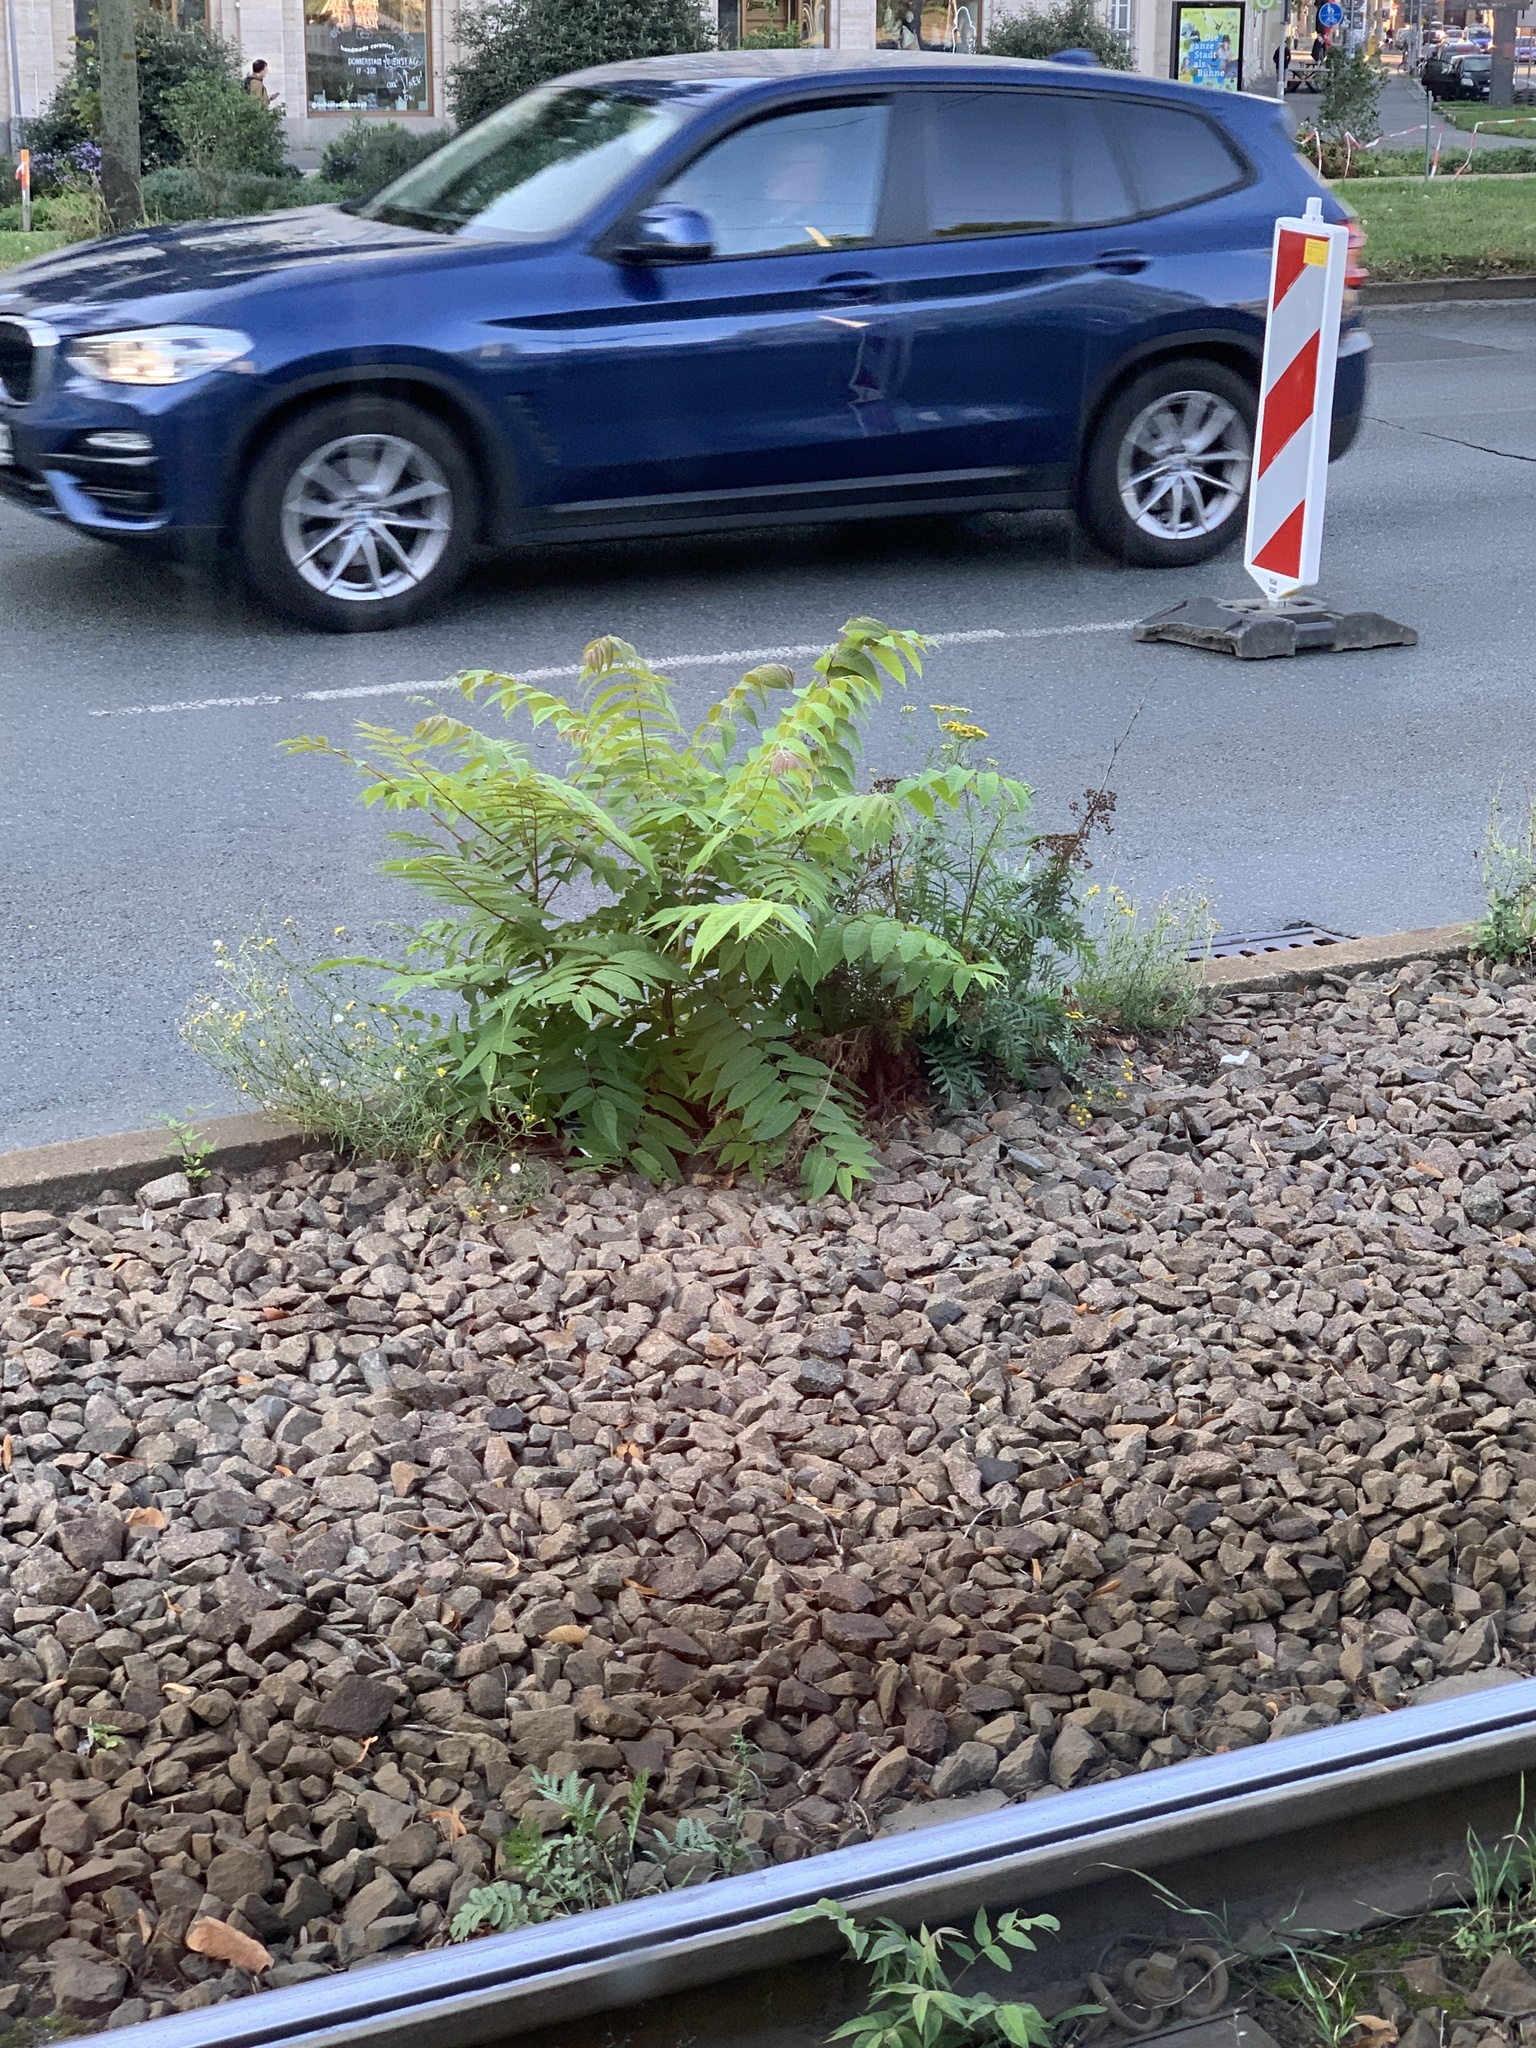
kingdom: Plantae
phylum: Tracheophyta
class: Magnoliopsida
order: Sapindales
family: Simaroubaceae
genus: Ailanthus
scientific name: Ailanthus altissima
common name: Tree-of-heaven
